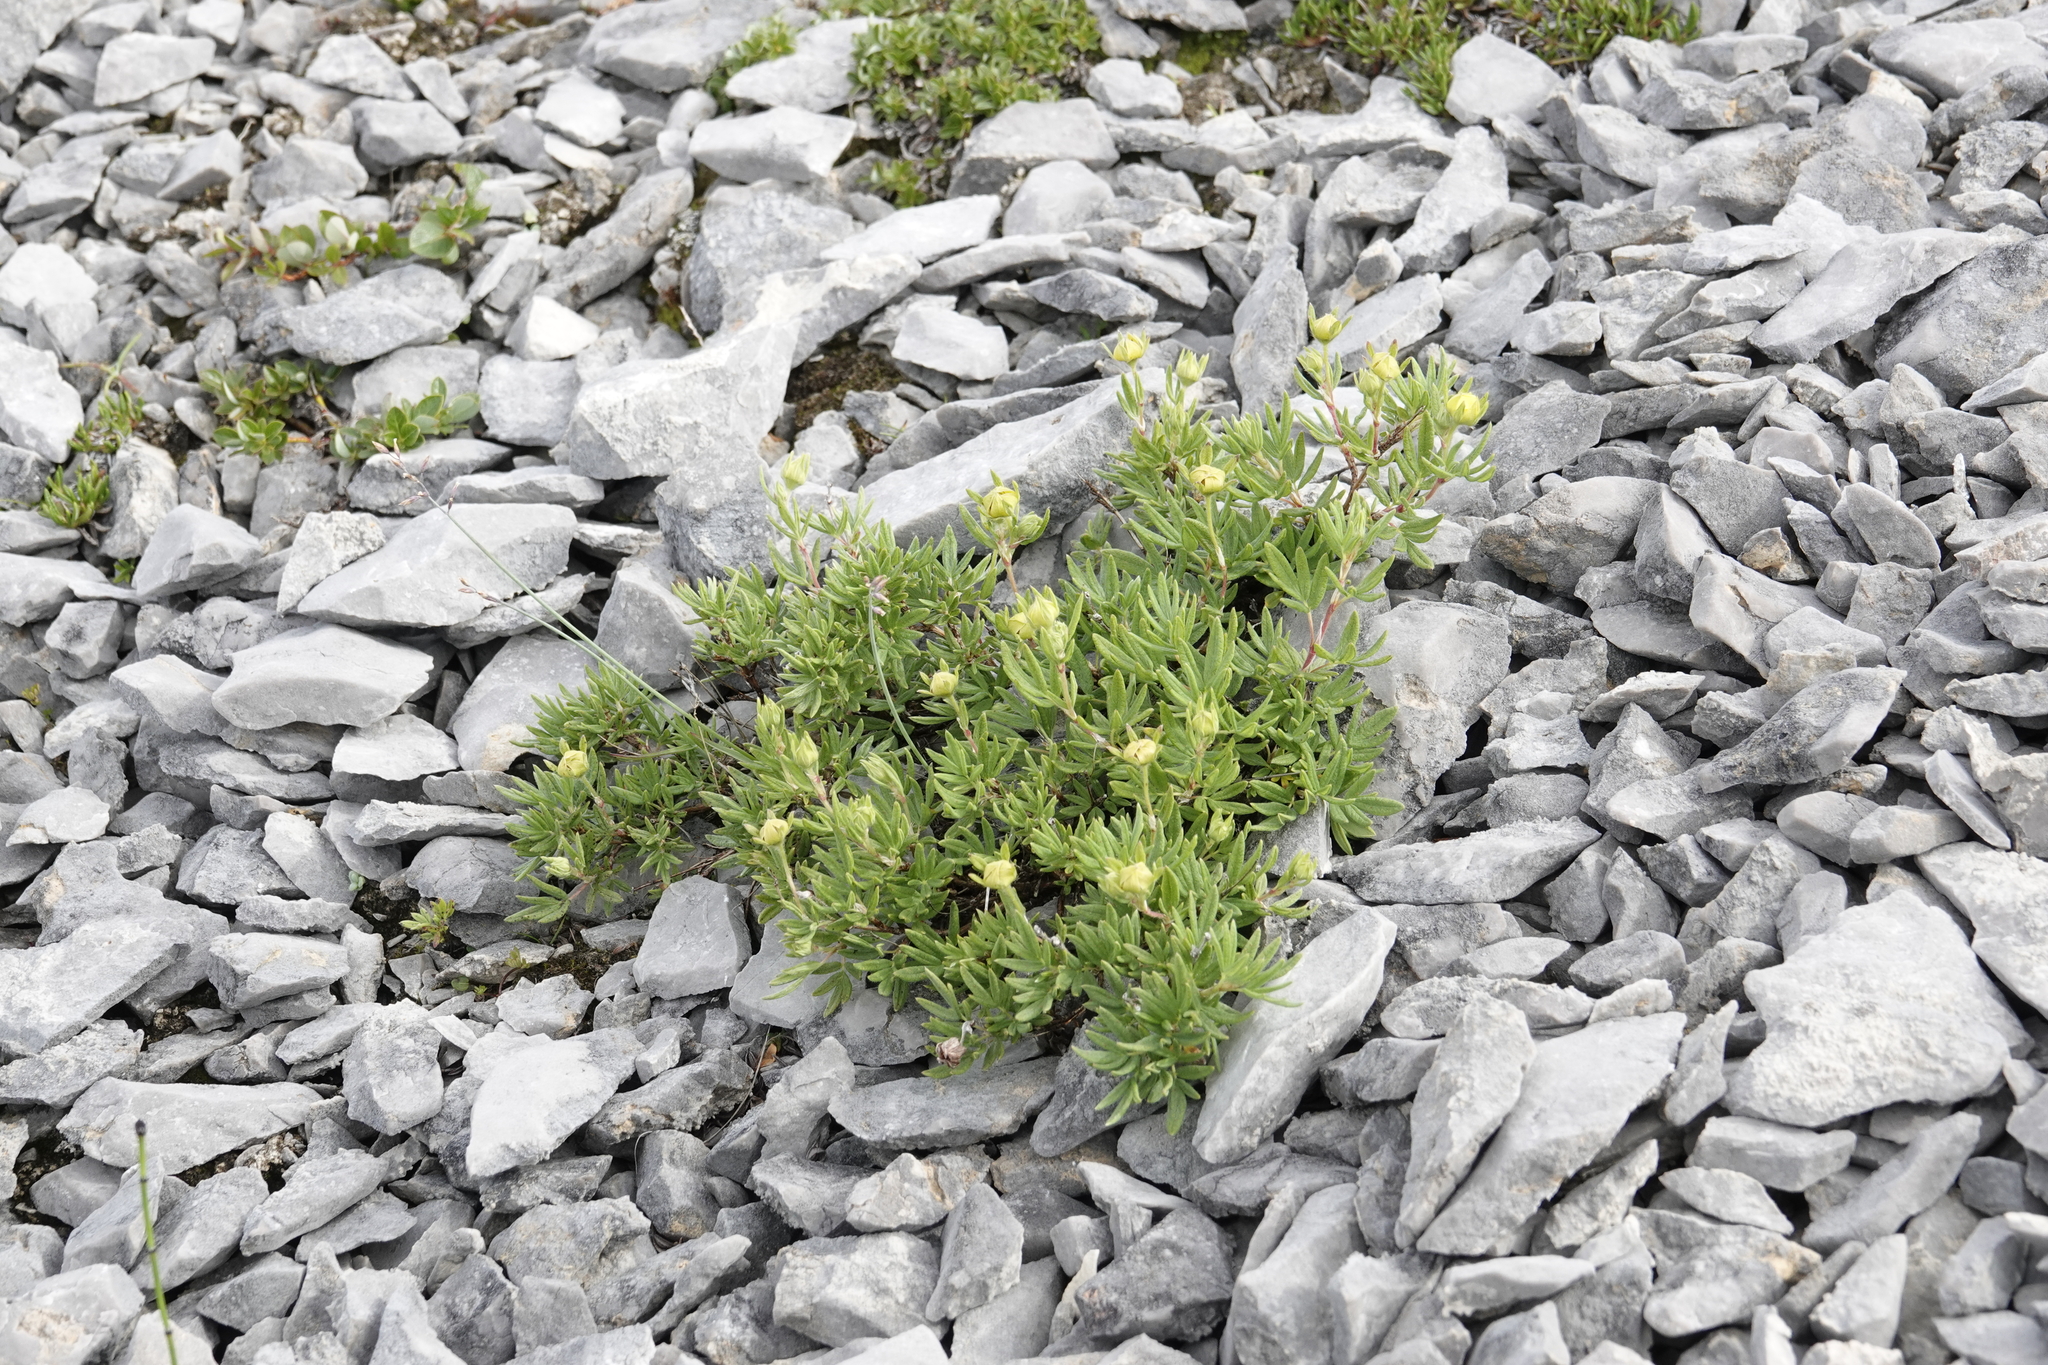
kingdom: Plantae
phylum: Tracheophyta
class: Magnoliopsida
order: Rosales
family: Rosaceae
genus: Dasiphora
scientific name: Dasiphora fruticosa
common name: Shrubby cinquefoil
